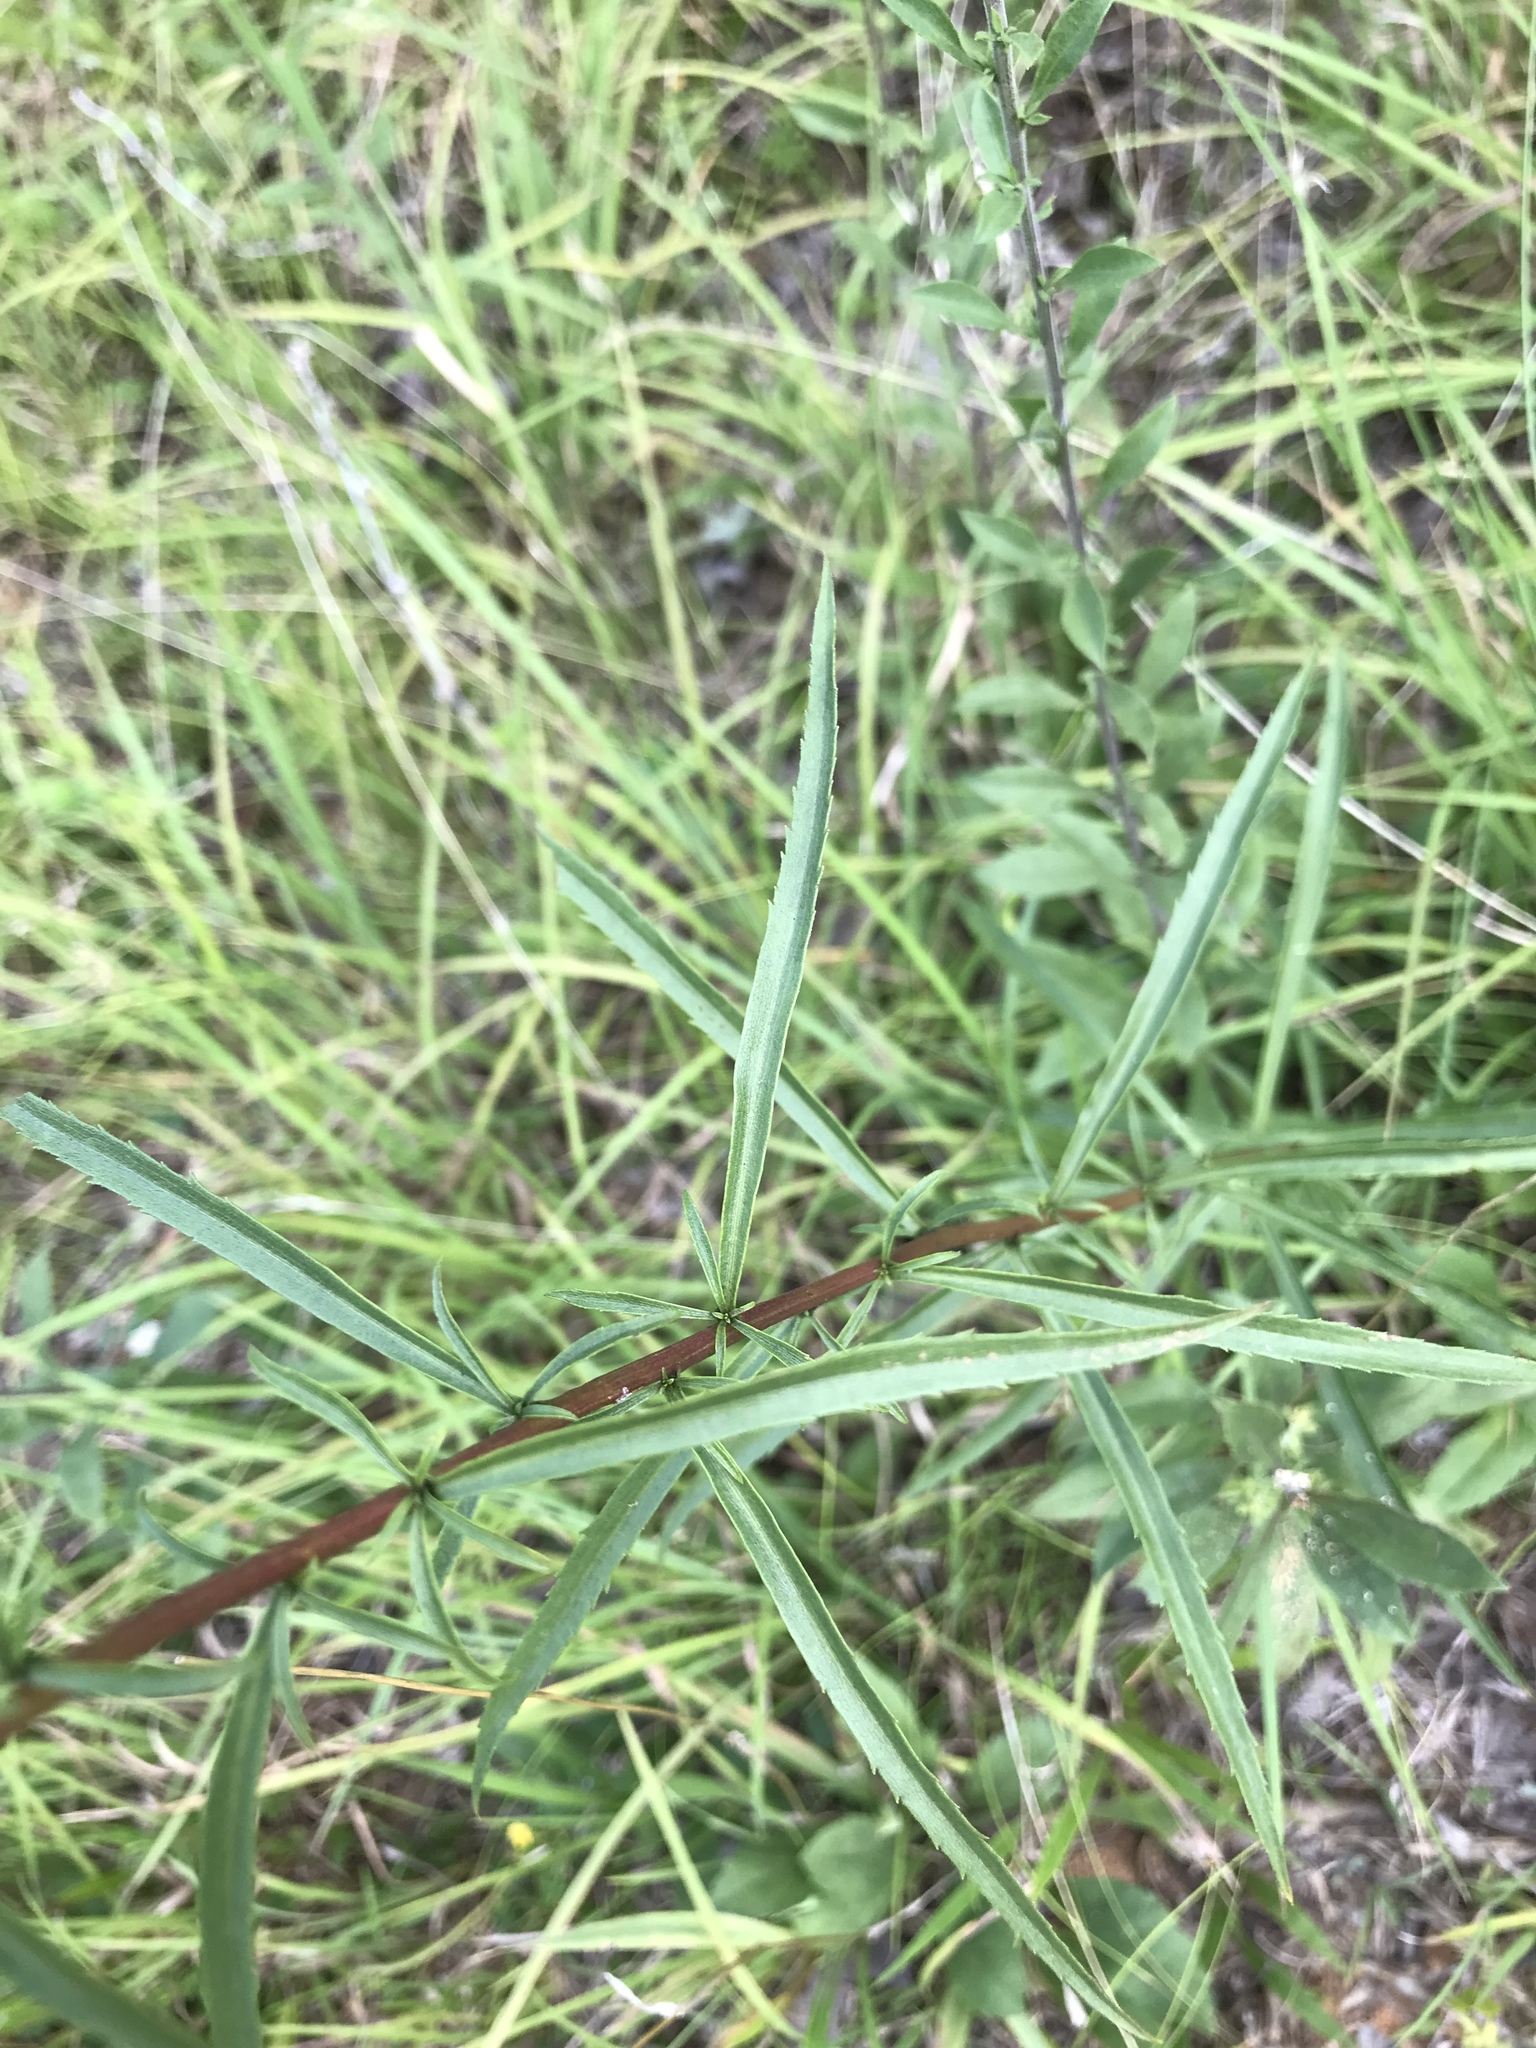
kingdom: Plantae
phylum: Tracheophyta
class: Magnoliopsida
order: Asterales
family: Asteraceae
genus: Solidago
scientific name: Solidago pinetorum
